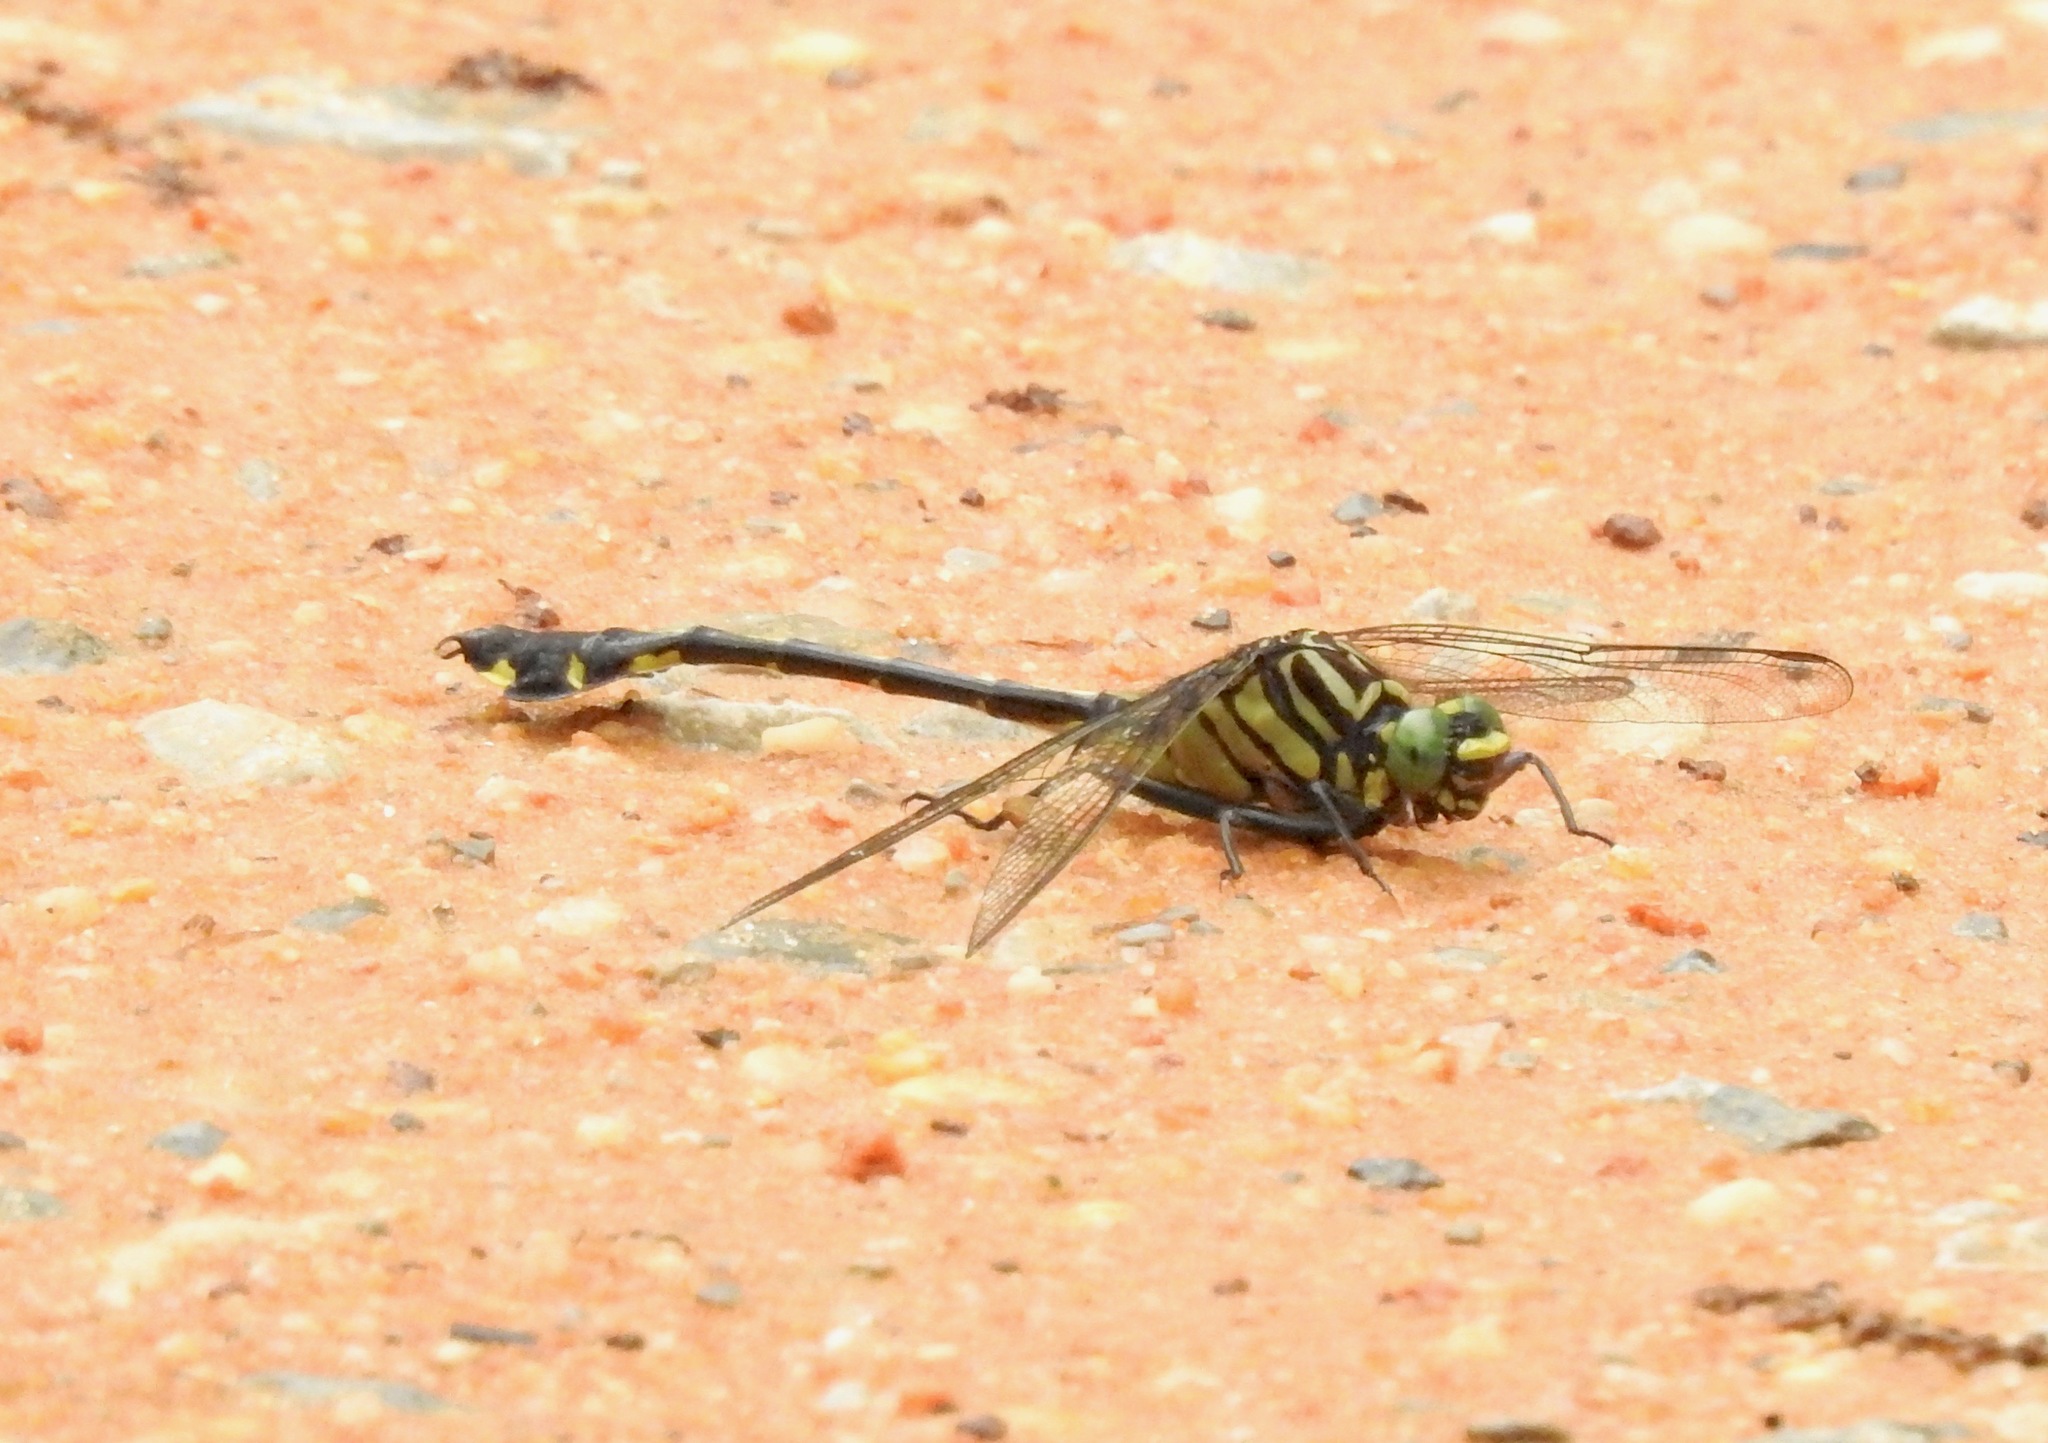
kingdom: Animalia
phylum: Arthropoda
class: Insecta
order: Odonata
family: Gomphidae
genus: Gomphurus
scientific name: Gomphurus dilatatus
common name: Blackwater clubtail
